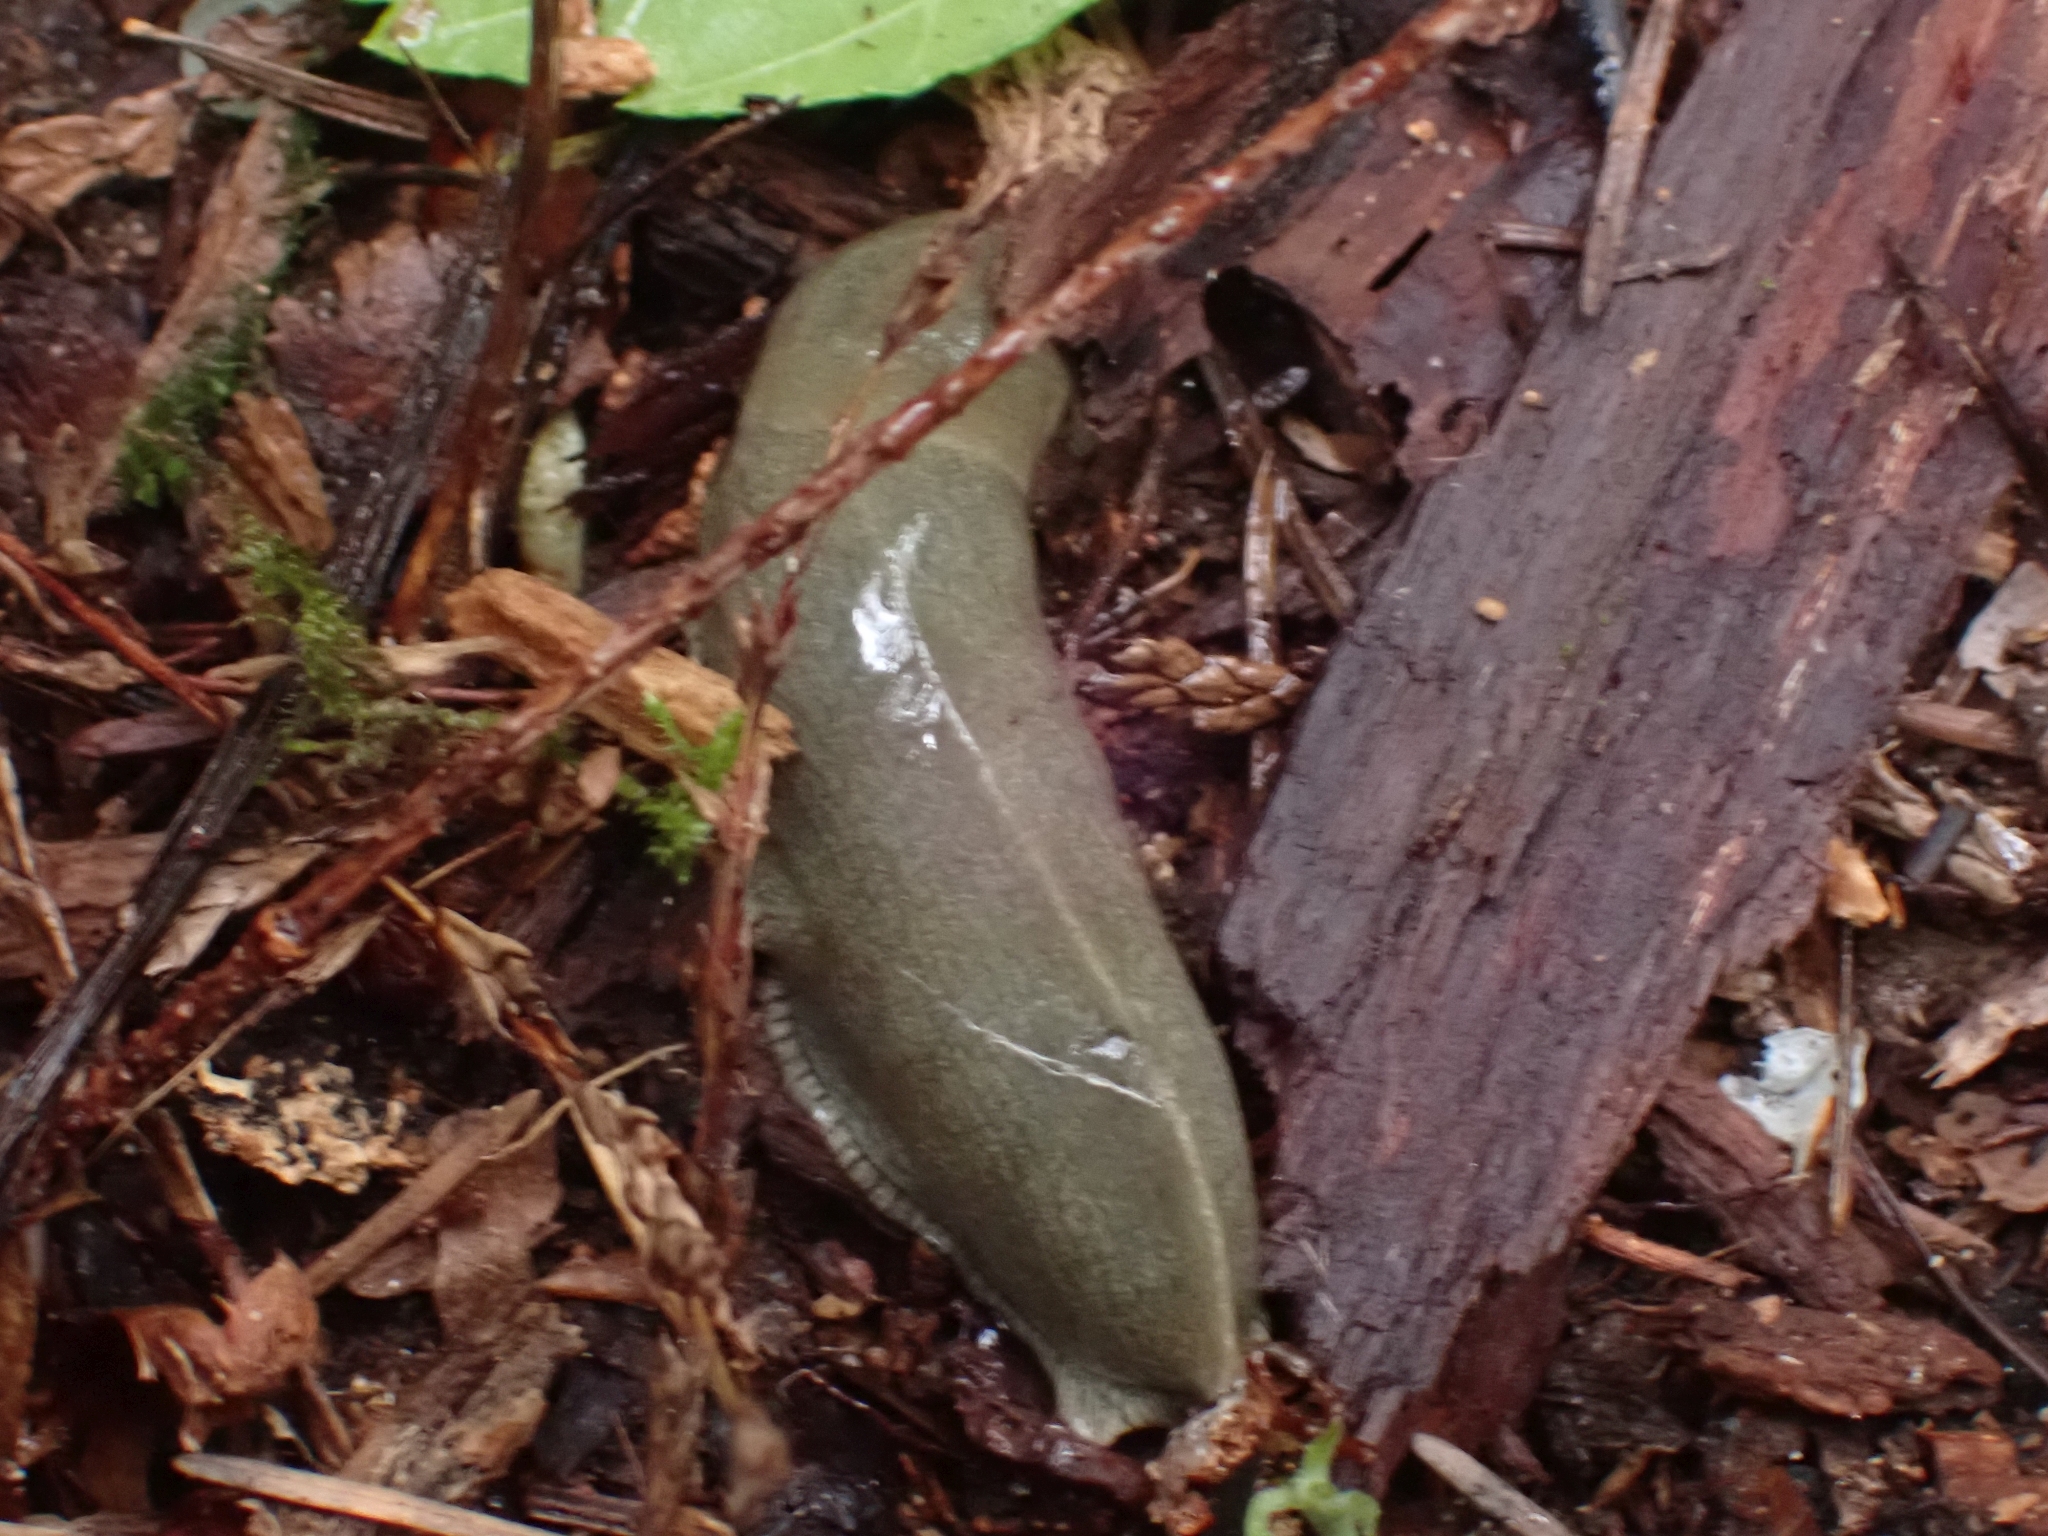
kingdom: Animalia
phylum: Mollusca
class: Gastropoda
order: Stylommatophora
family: Ariolimacidae
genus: Ariolimax
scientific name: Ariolimax columbianus
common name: Pacific banana slug
